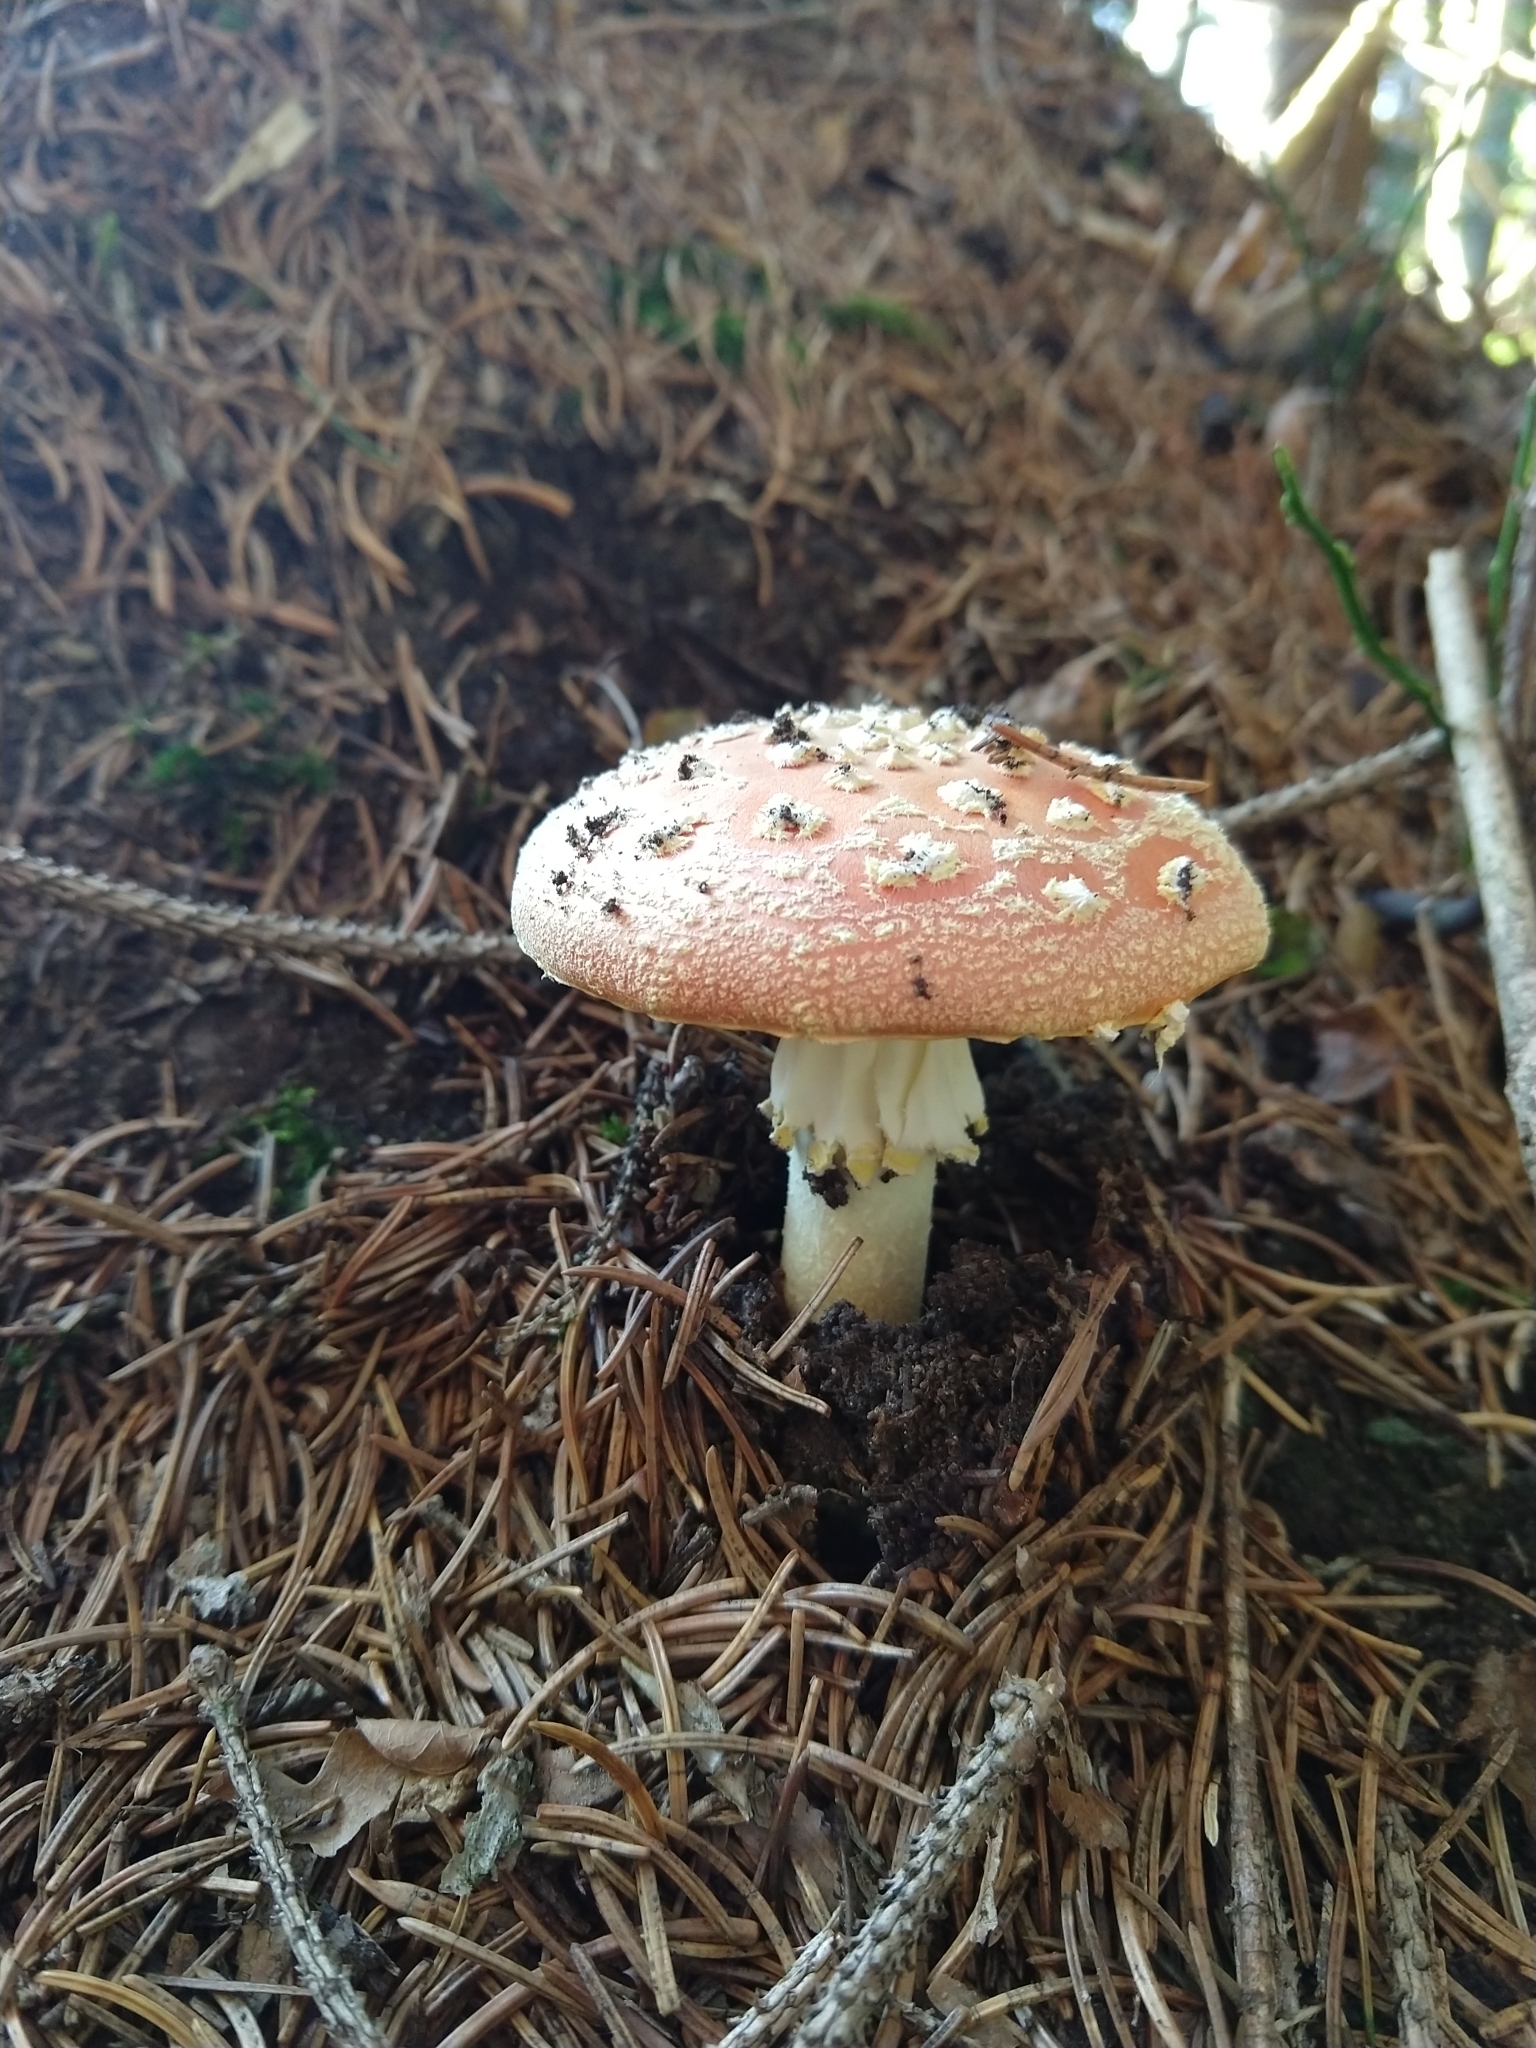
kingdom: Fungi
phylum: Basidiomycota
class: Agaricomycetes
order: Agaricales
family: Amanitaceae
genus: Amanita
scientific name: Amanita muscaria
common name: Fly agaric
